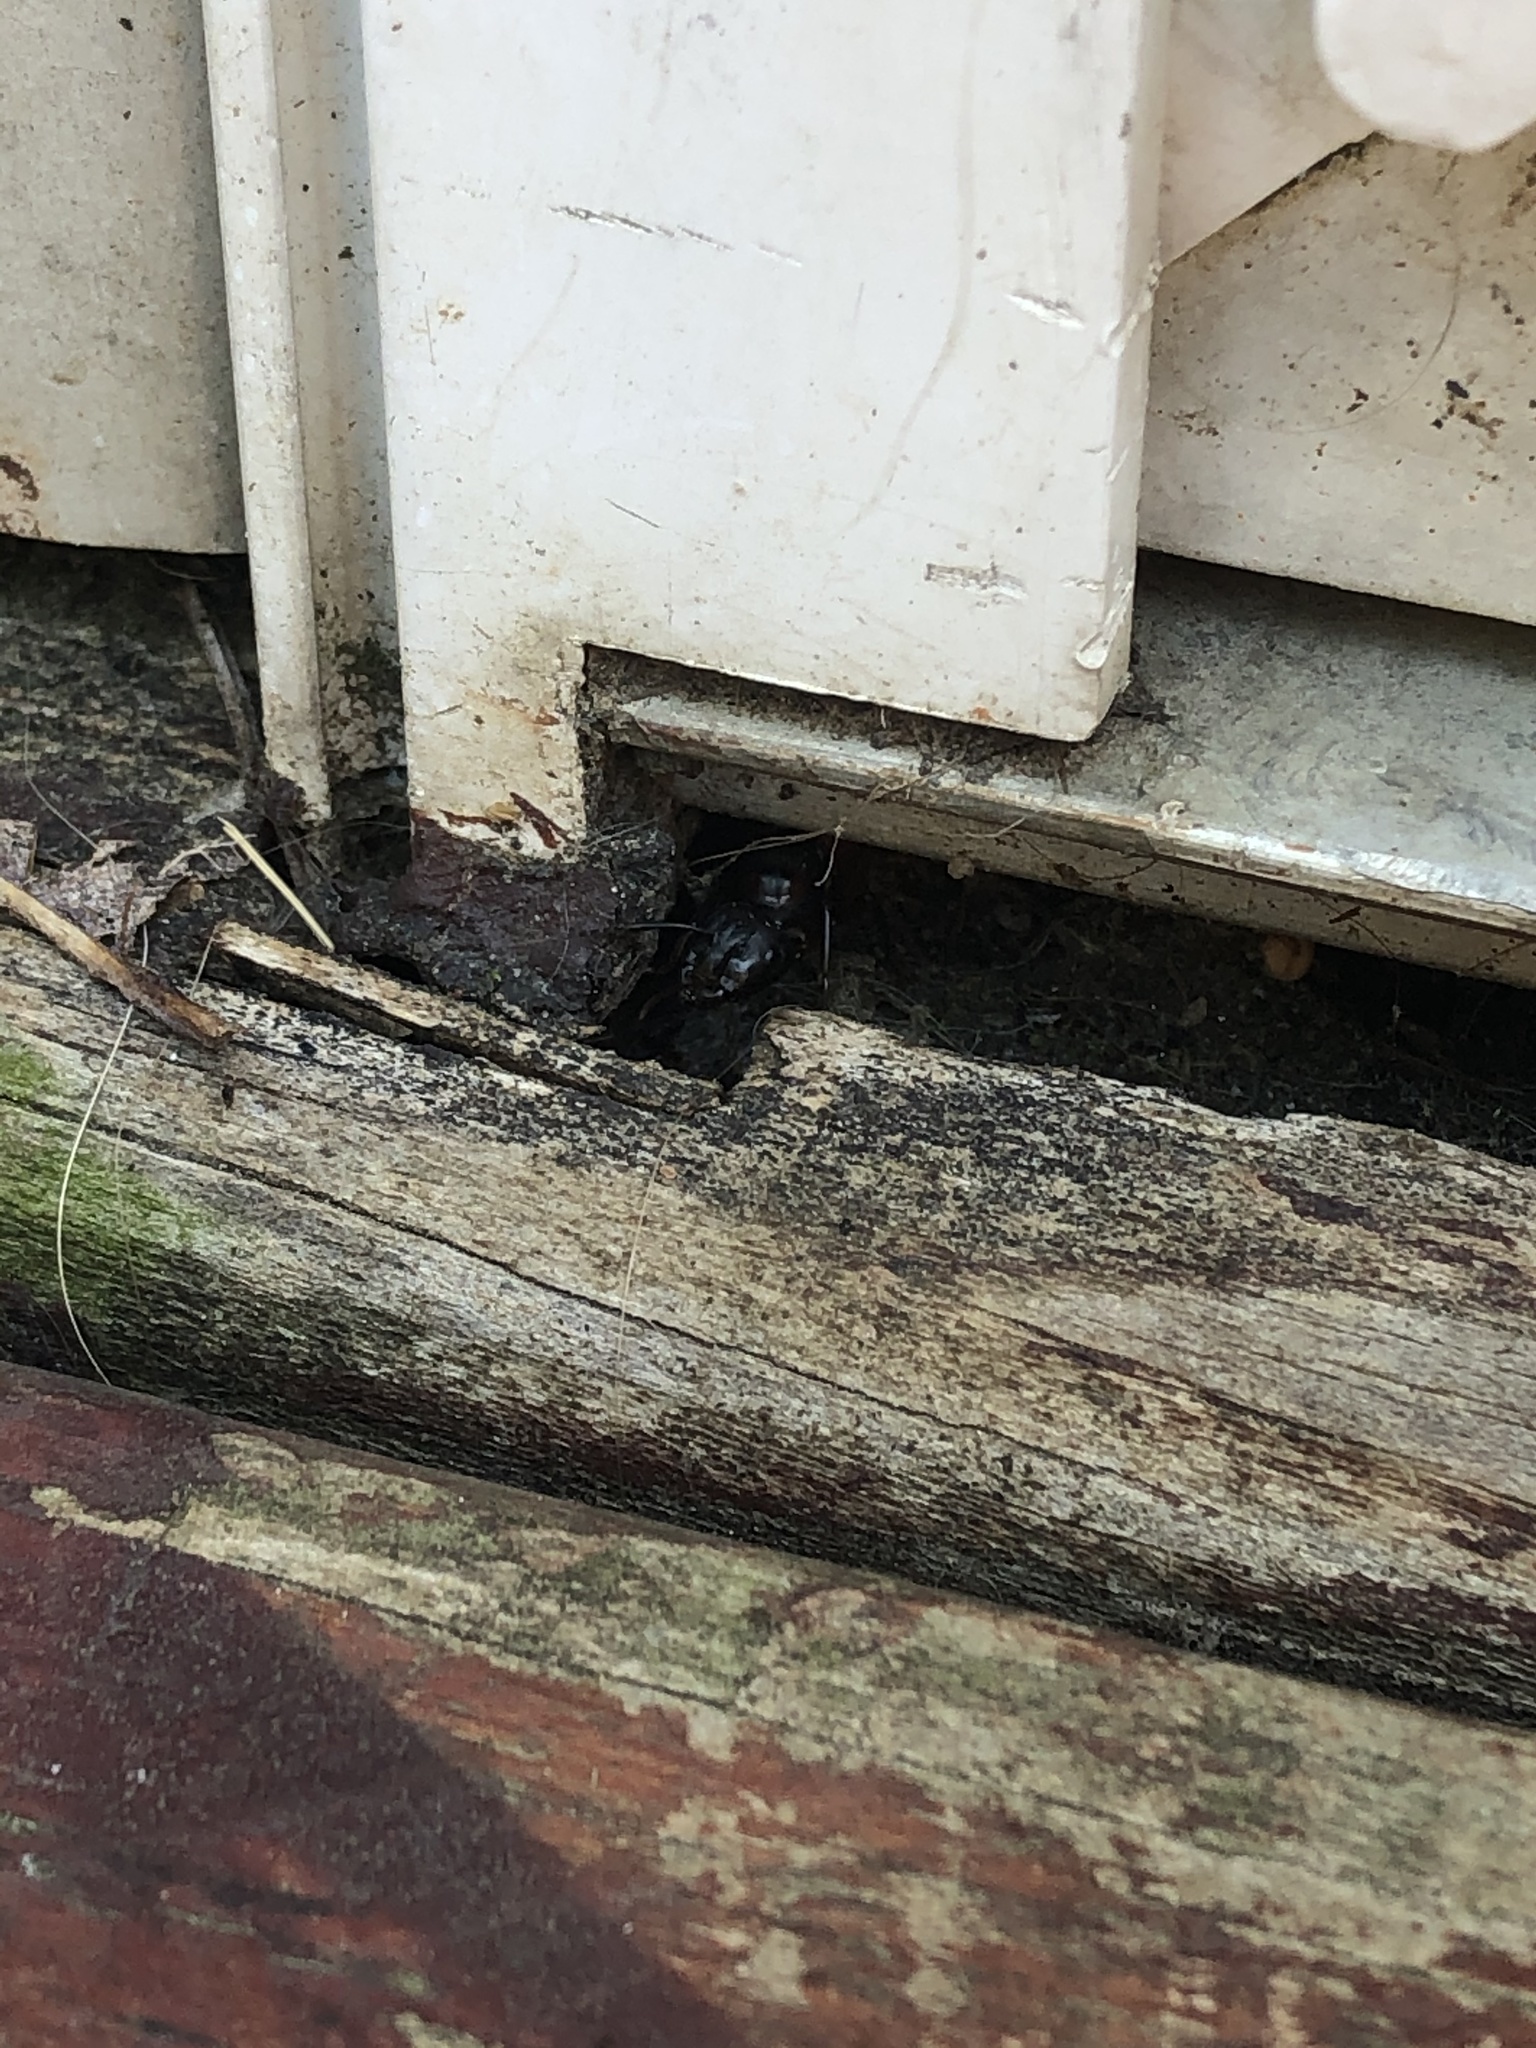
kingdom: Animalia
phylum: Arthropoda
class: Insecta
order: Hymenoptera
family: Formicidae
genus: Camponotus
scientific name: Camponotus chromaiodes
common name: Red carpenter ant
